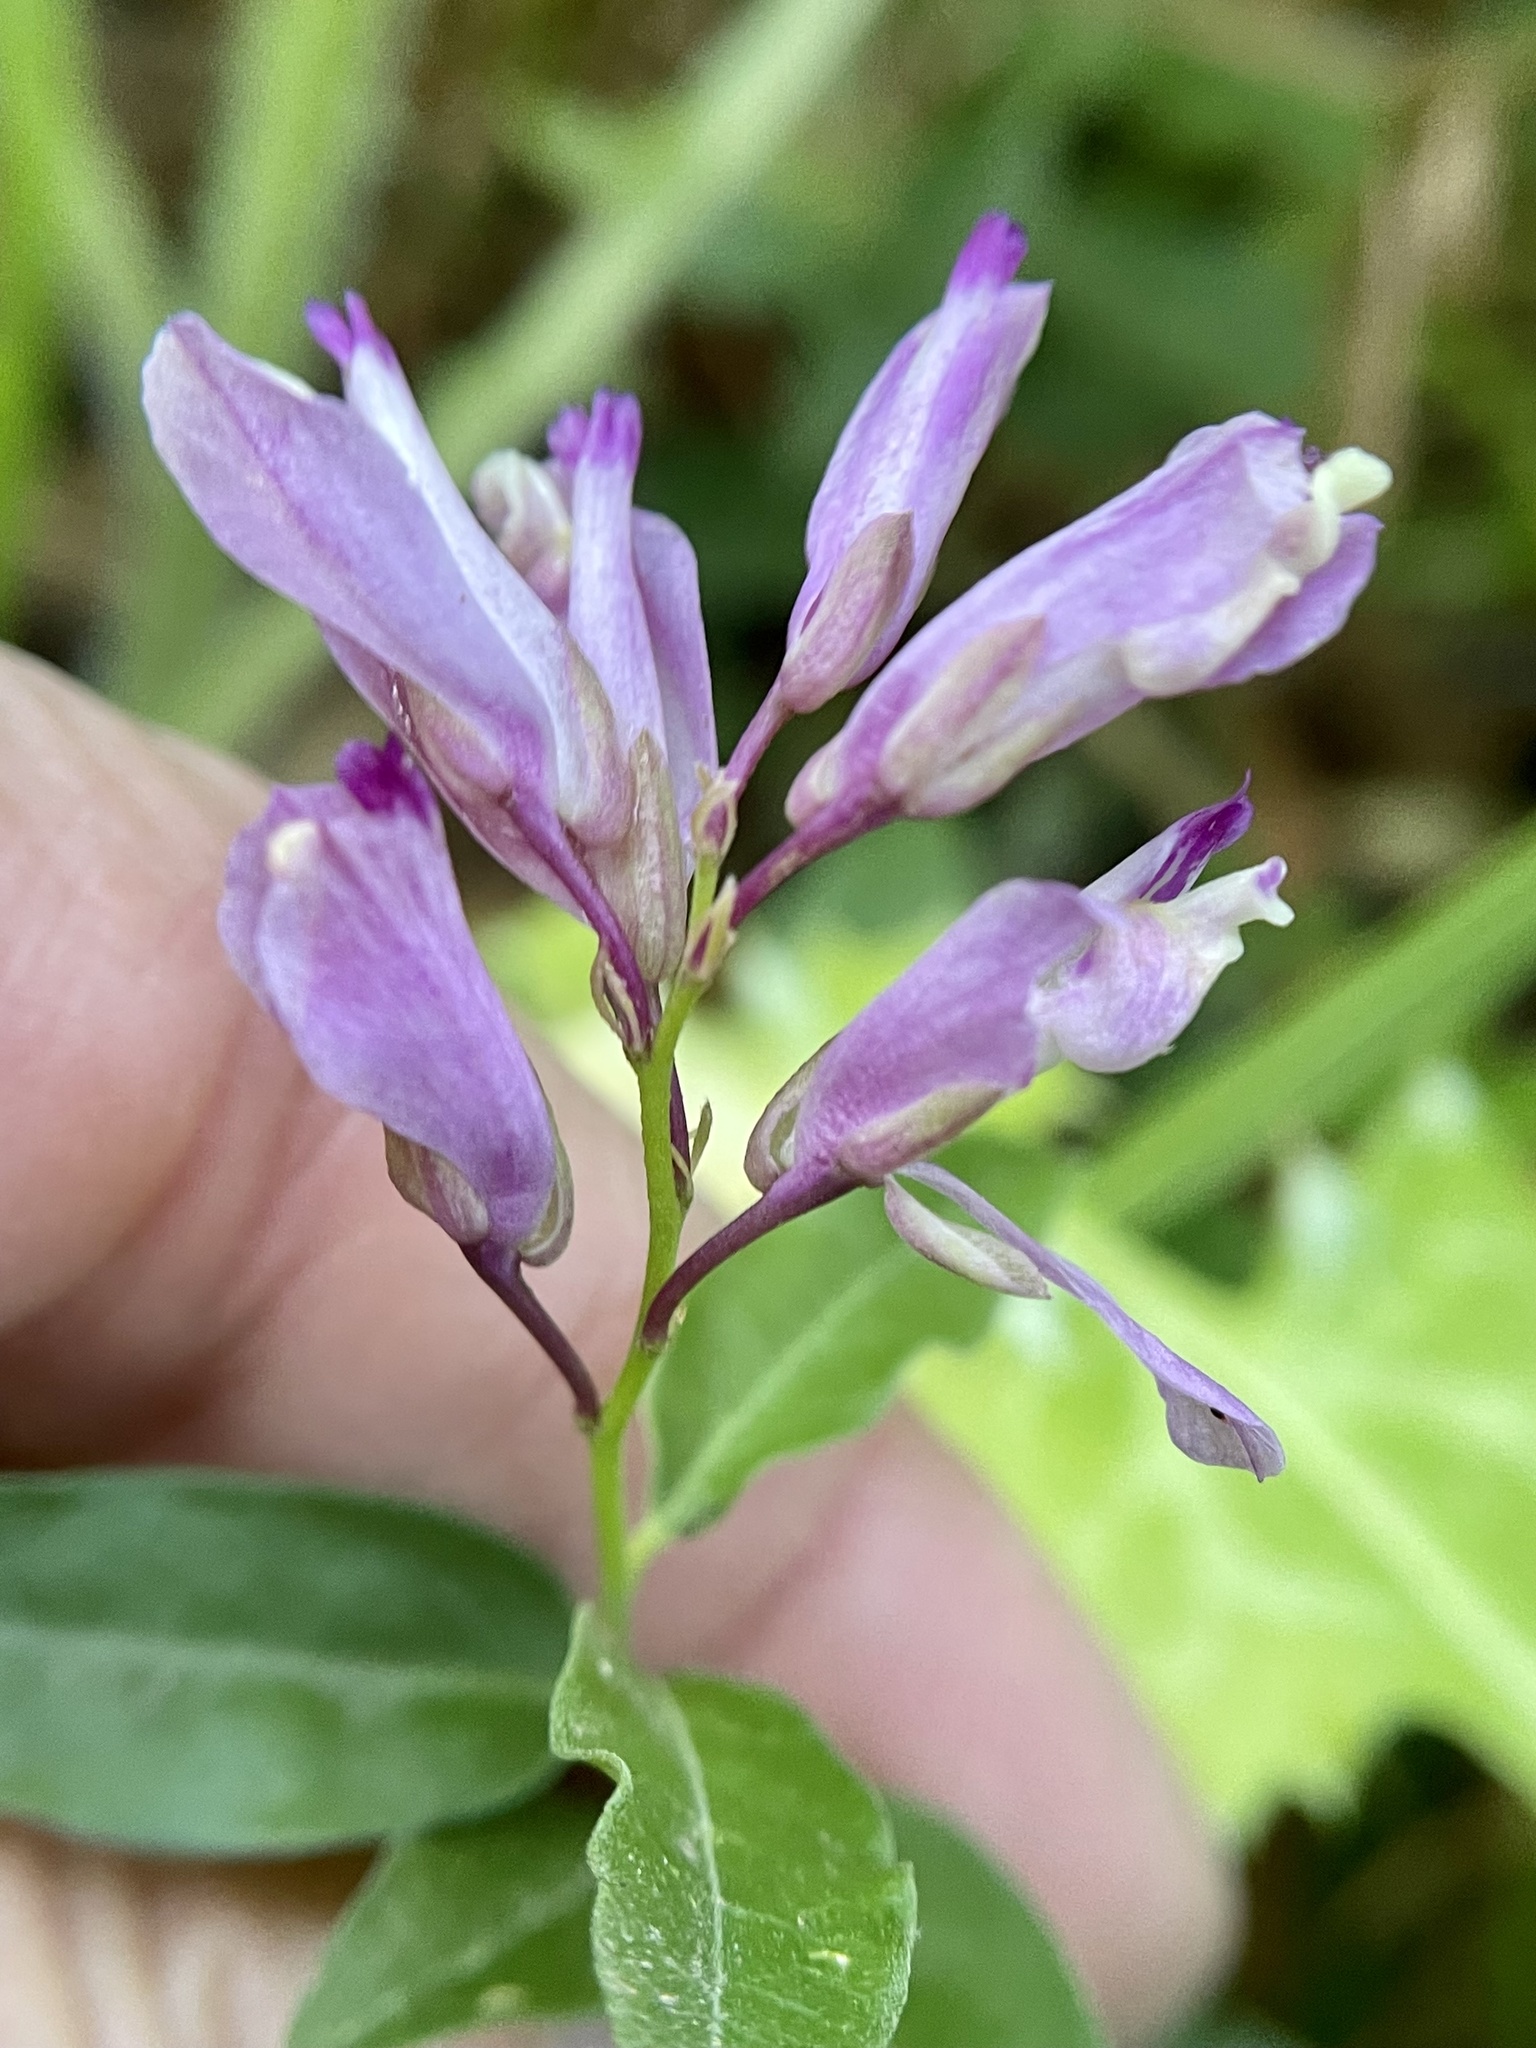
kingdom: Plantae
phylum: Tracheophyta
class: Magnoliopsida
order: Fabales
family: Polygalaceae
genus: Rhinotropis
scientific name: Rhinotropis californica
